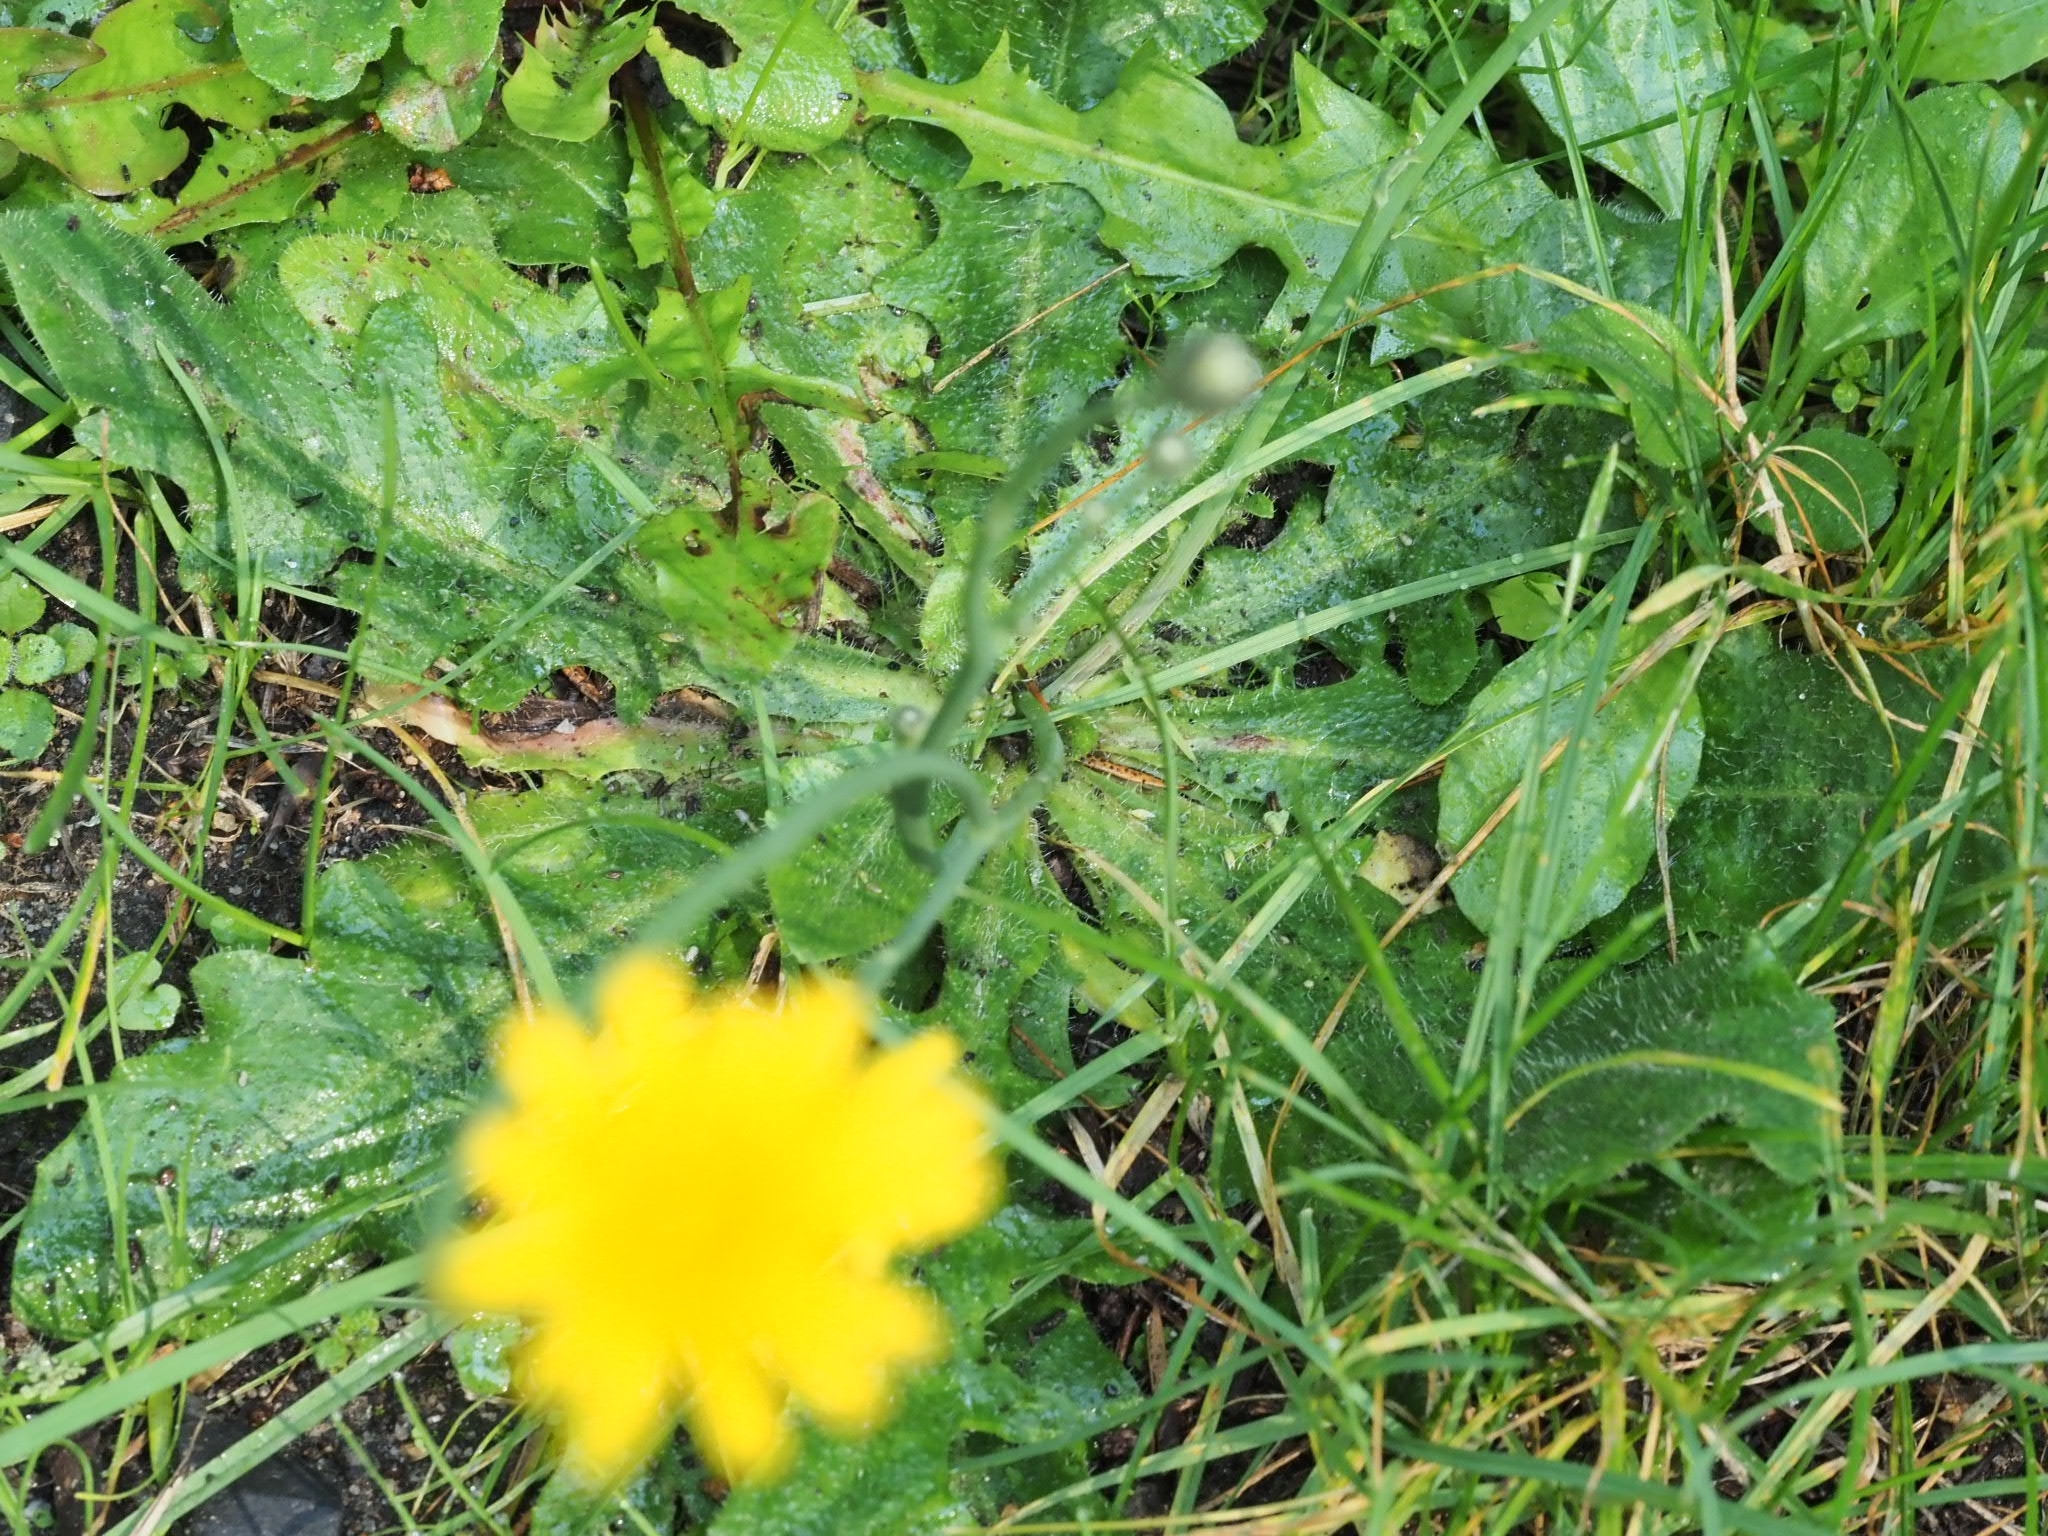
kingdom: Plantae
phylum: Tracheophyta
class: Magnoliopsida
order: Asterales
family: Asteraceae
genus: Hypochaeris
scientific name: Hypochaeris radicata
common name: Flatweed
